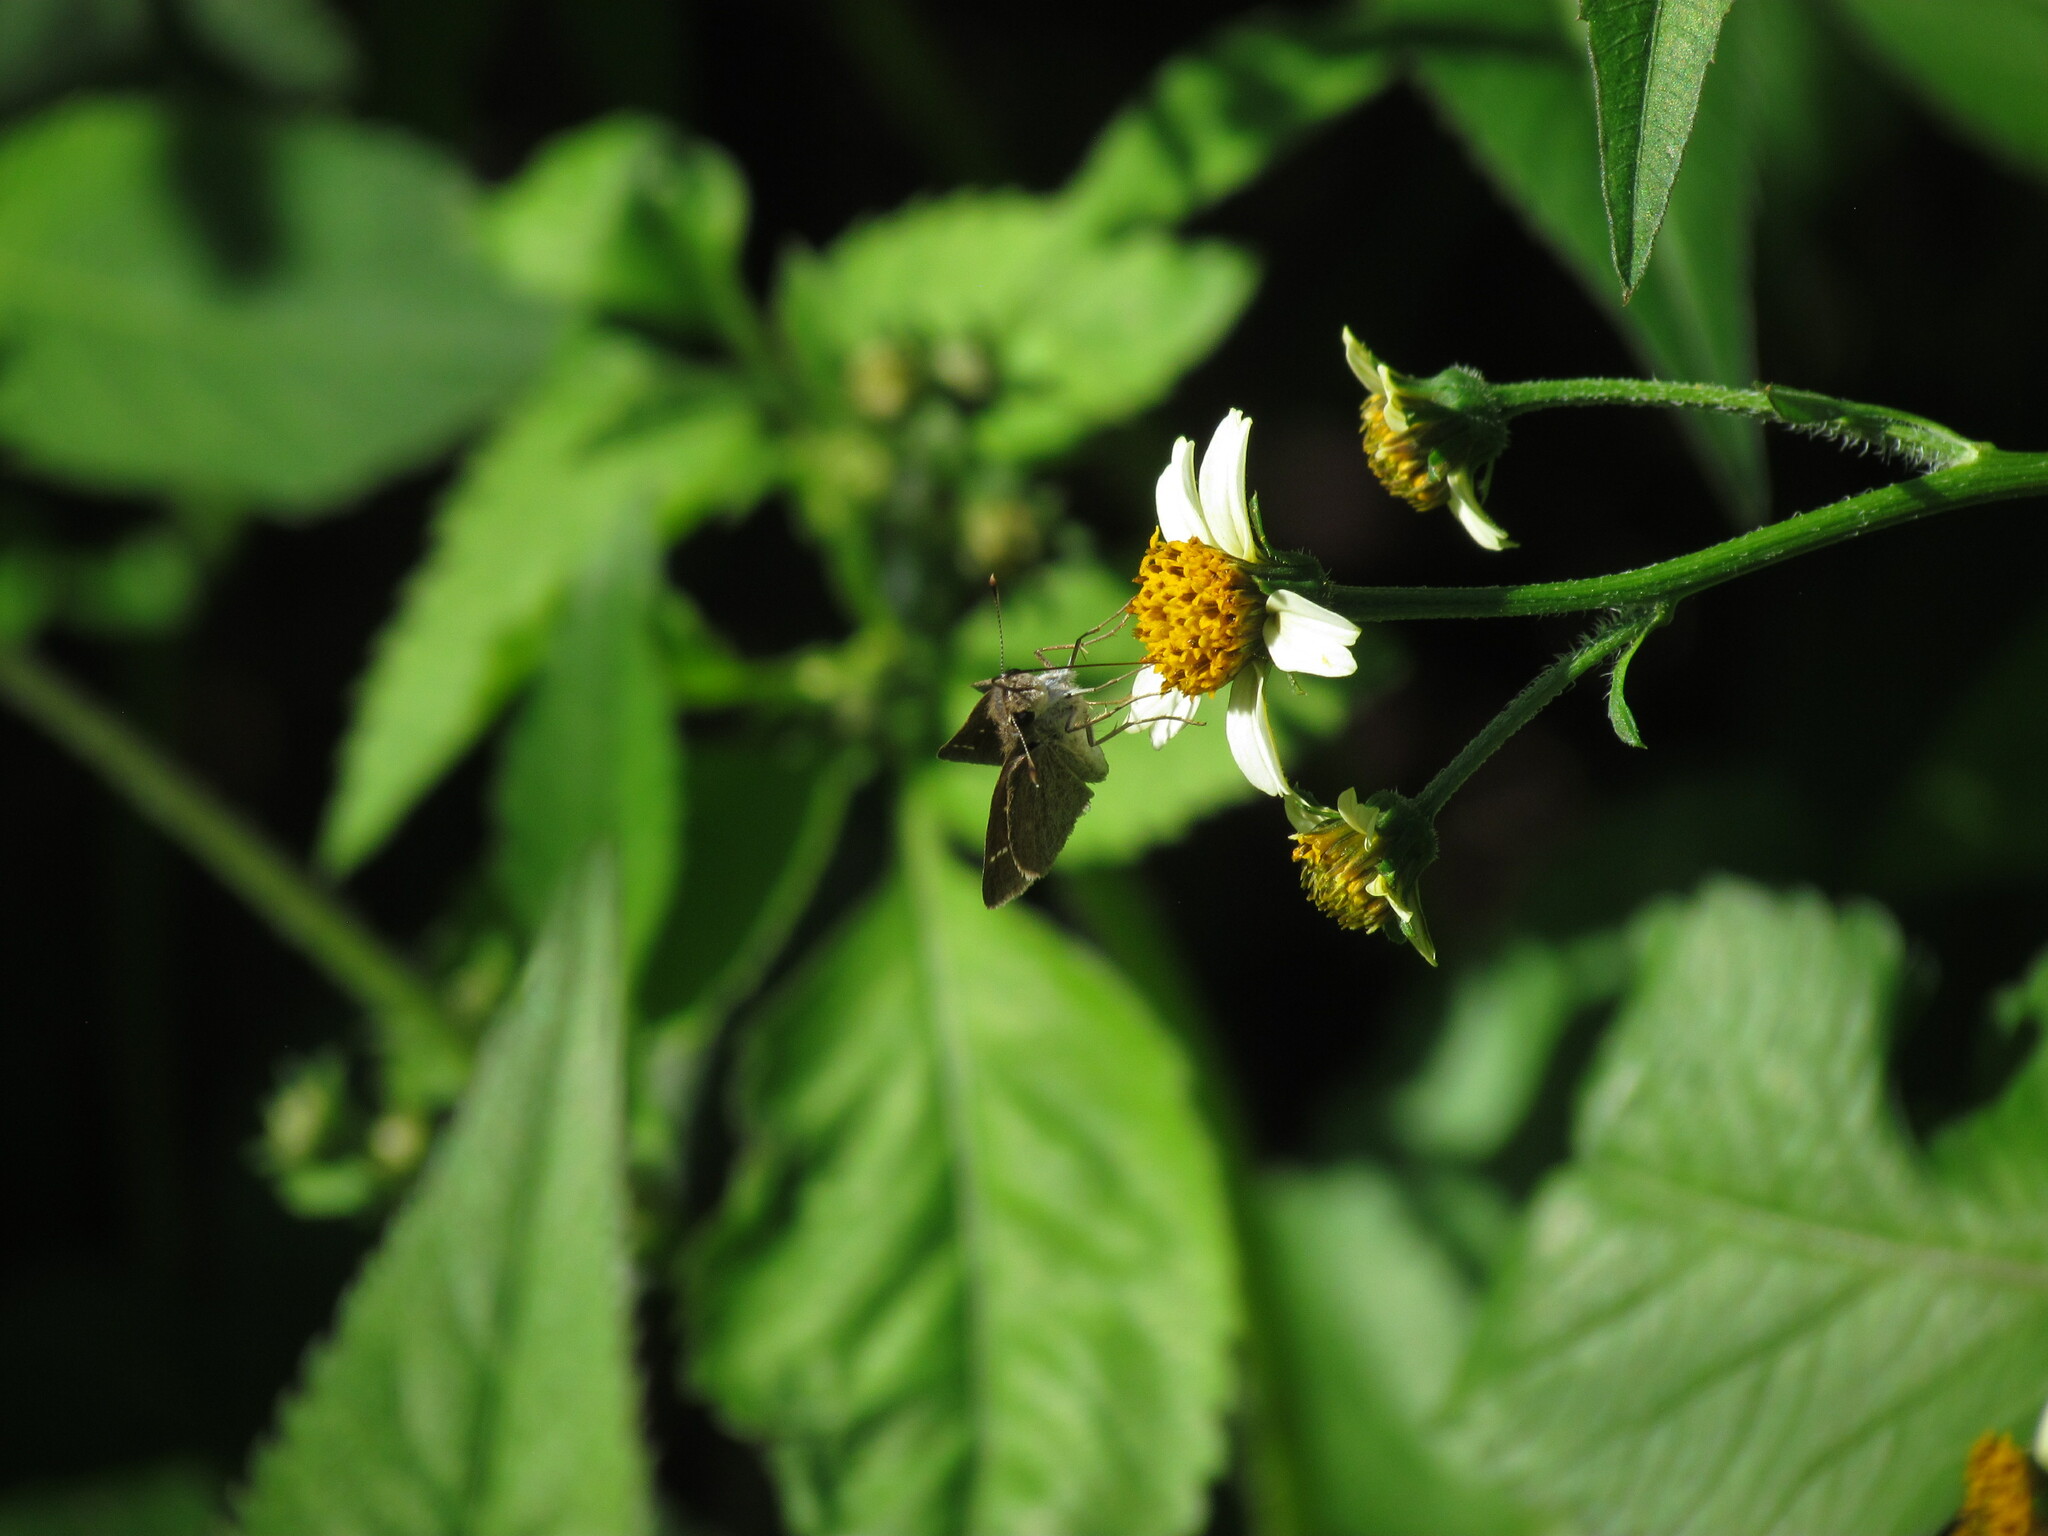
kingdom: Animalia
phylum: Arthropoda
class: Insecta
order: Lepidoptera
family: Hesperiidae
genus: Lerodea
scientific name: Lerodea eufala
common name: Eufala skipper
